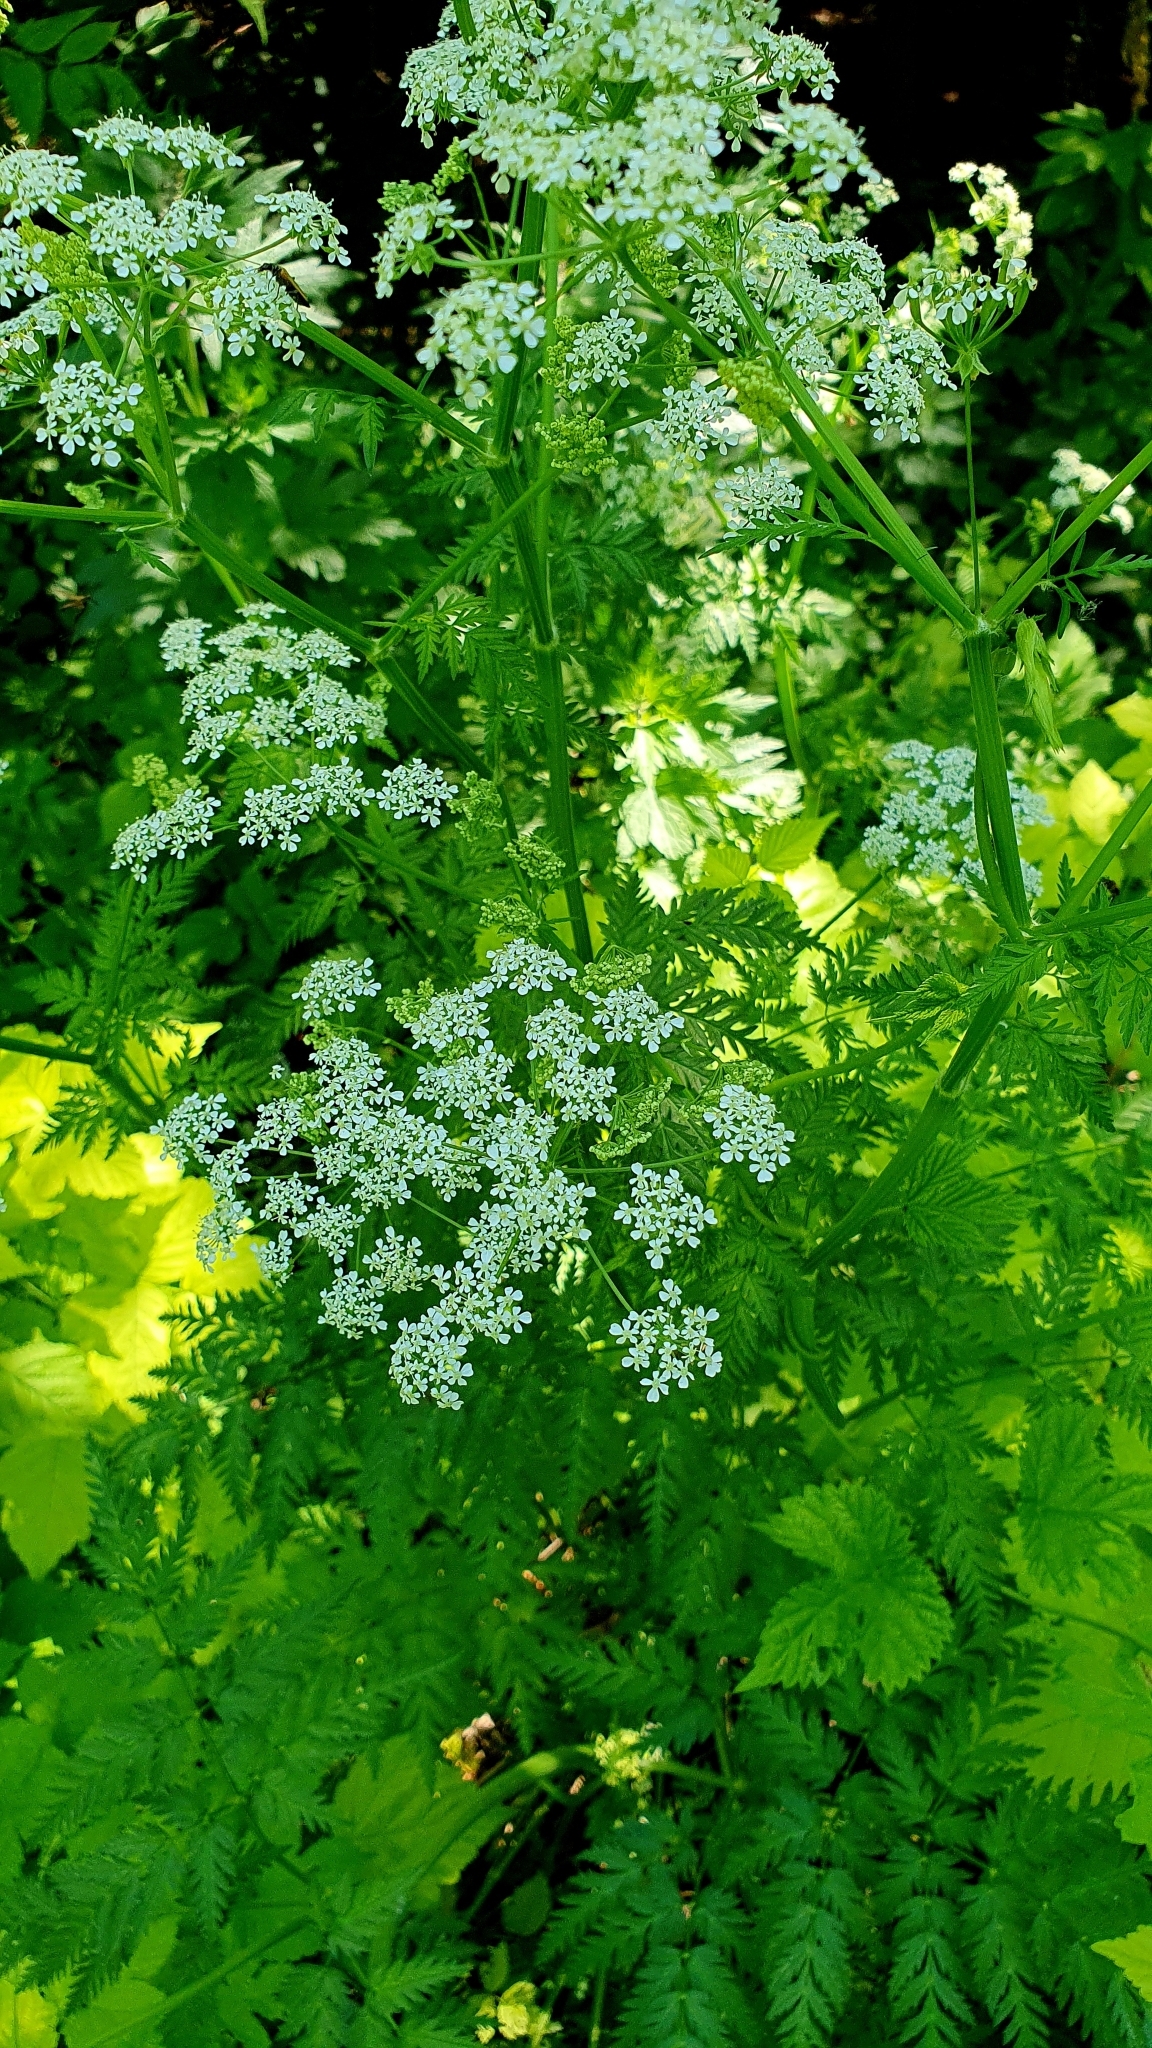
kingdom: Plantae
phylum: Tracheophyta
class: Magnoliopsida
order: Apiales
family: Apiaceae
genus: Anthriscus
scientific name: Anthriscus sylvestris
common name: Cow parsley
